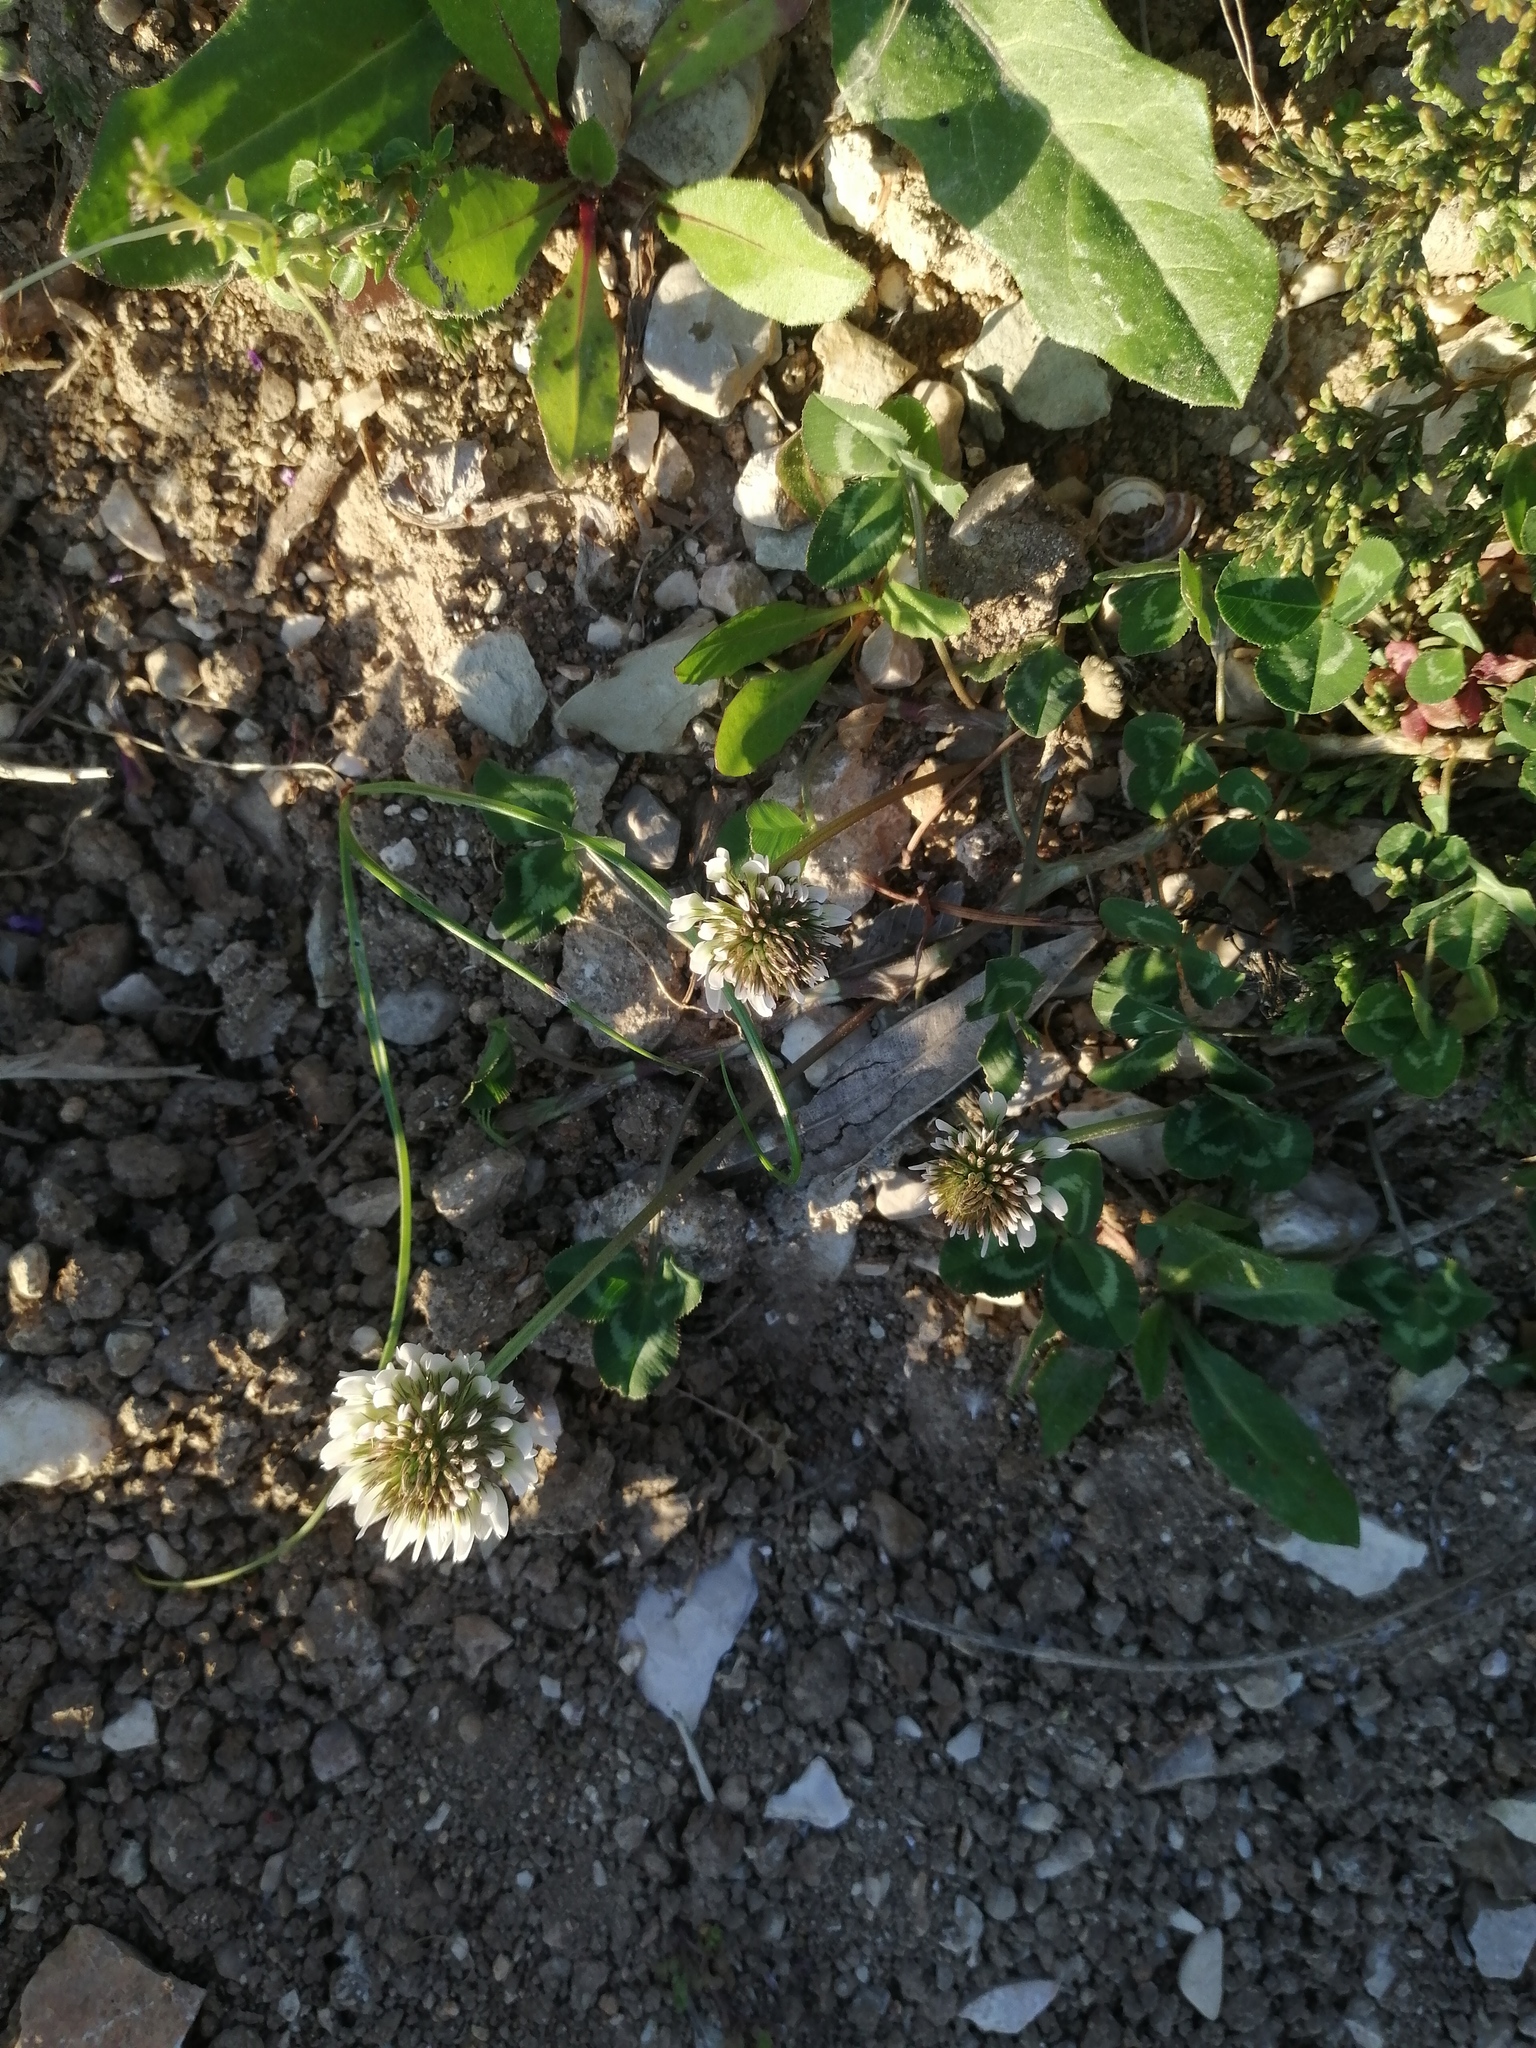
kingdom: Plantae
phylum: Tracheophyta
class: Magnoliopsida
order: Fabales
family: Fabaceae
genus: Trifolium
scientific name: Trifolium repens
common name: White clover
